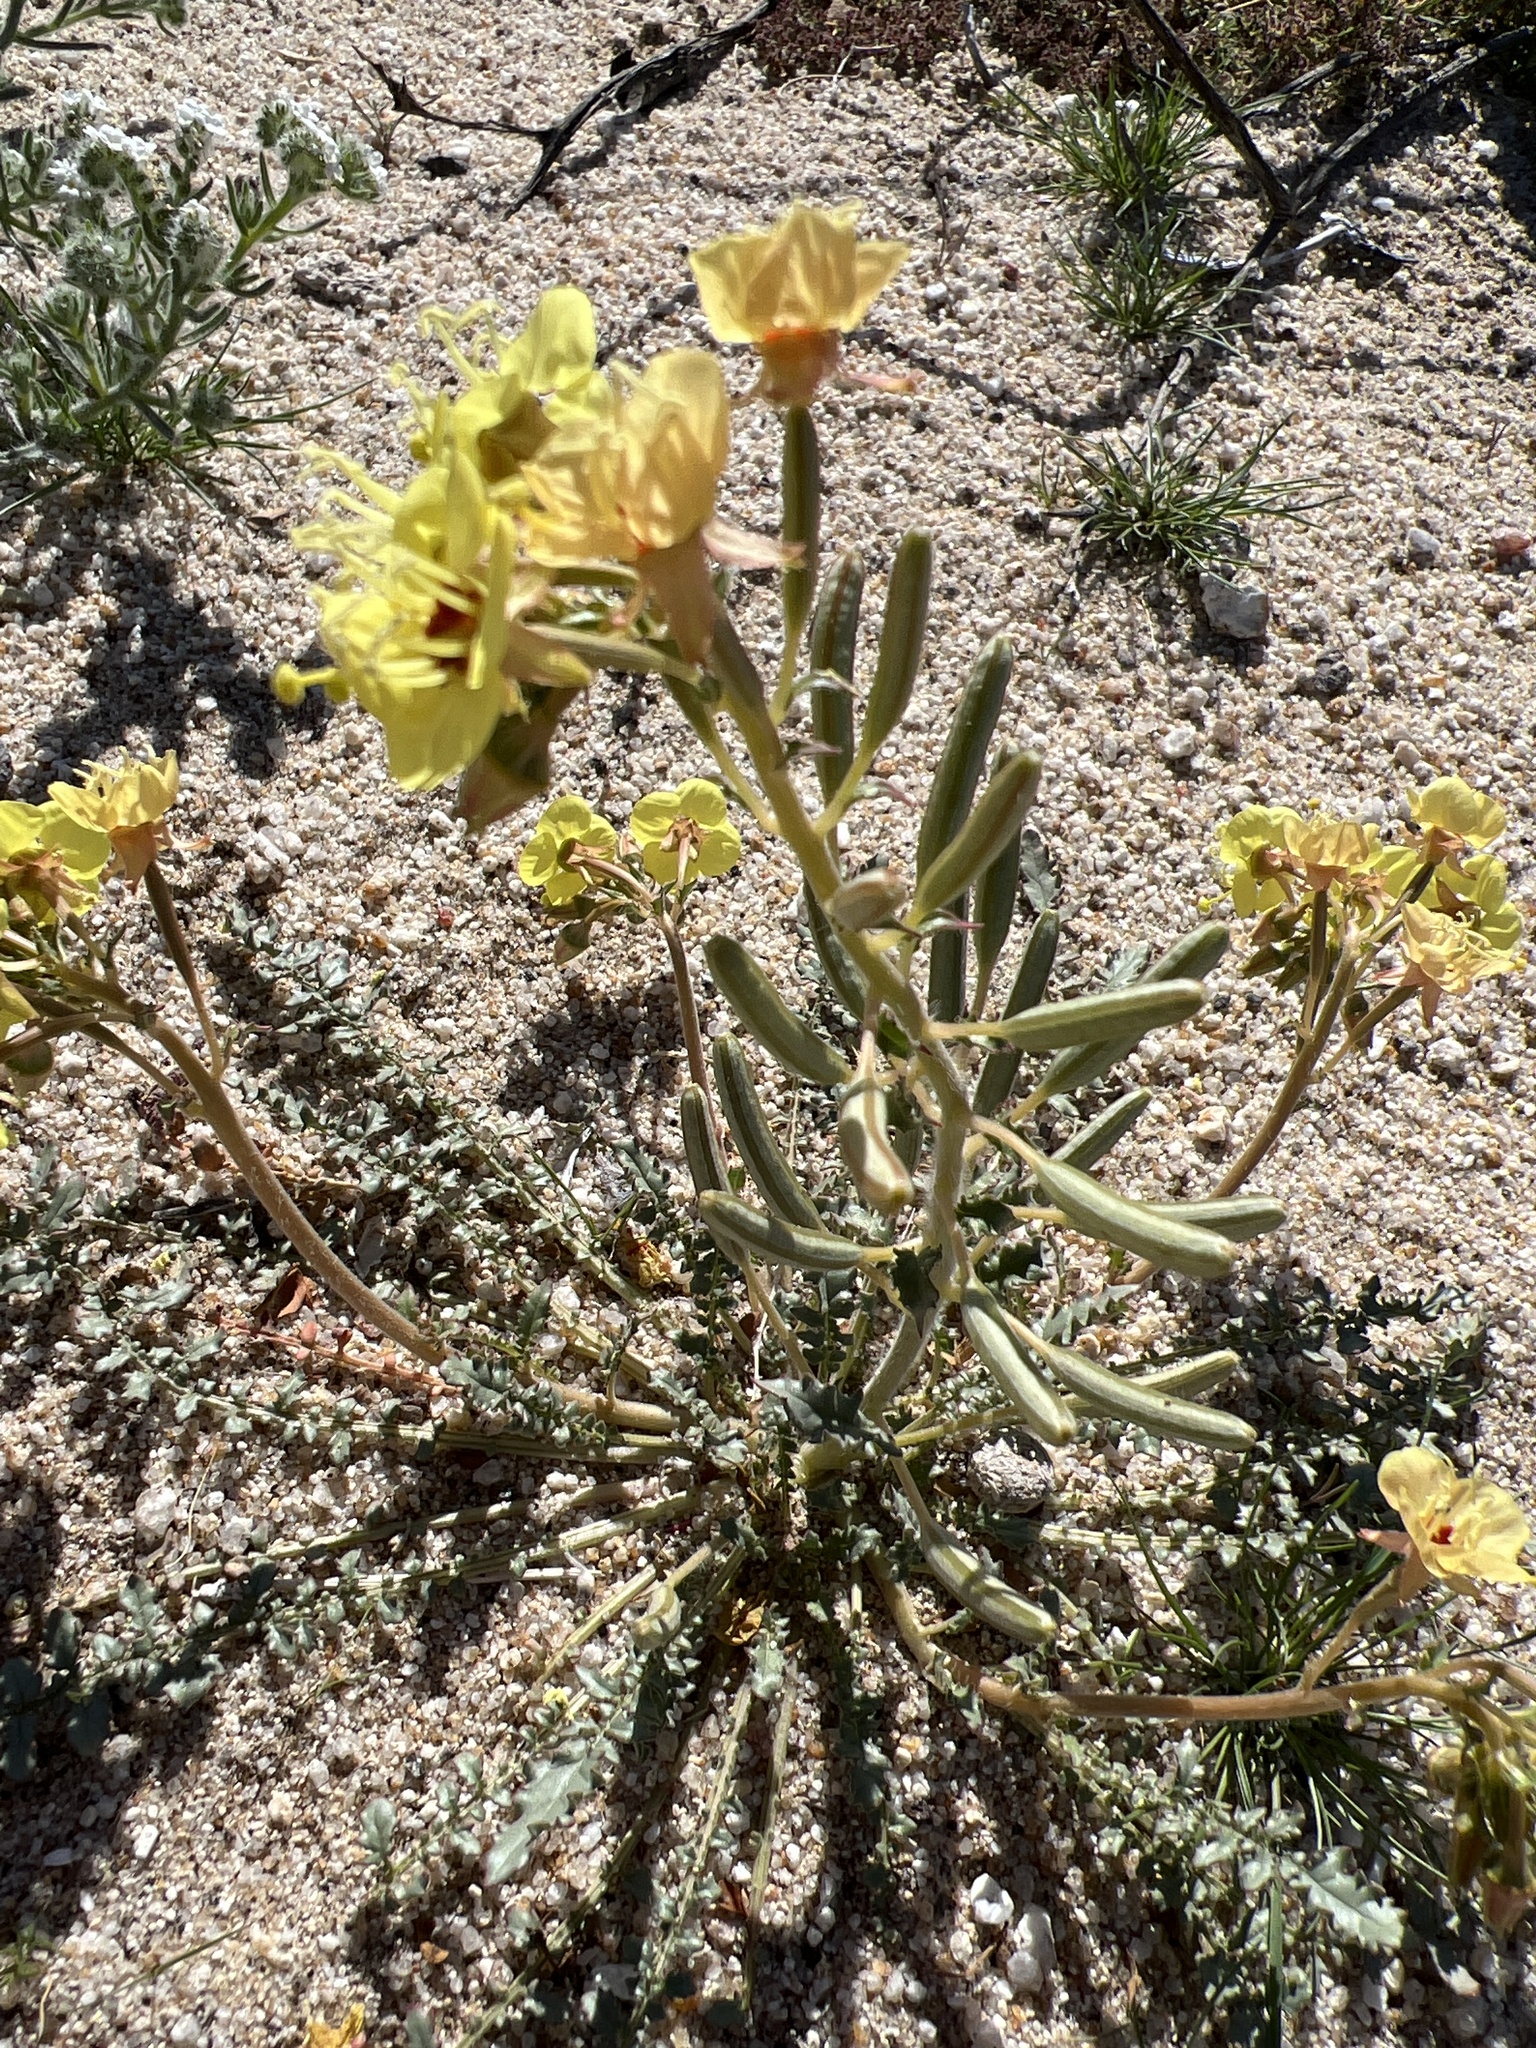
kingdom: Plantae
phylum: Tracheophyta
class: Magnoliopsida
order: Myrtales
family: Onagraceae
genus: Chylismia
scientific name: Chylismia claviformis
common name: Browneyes
